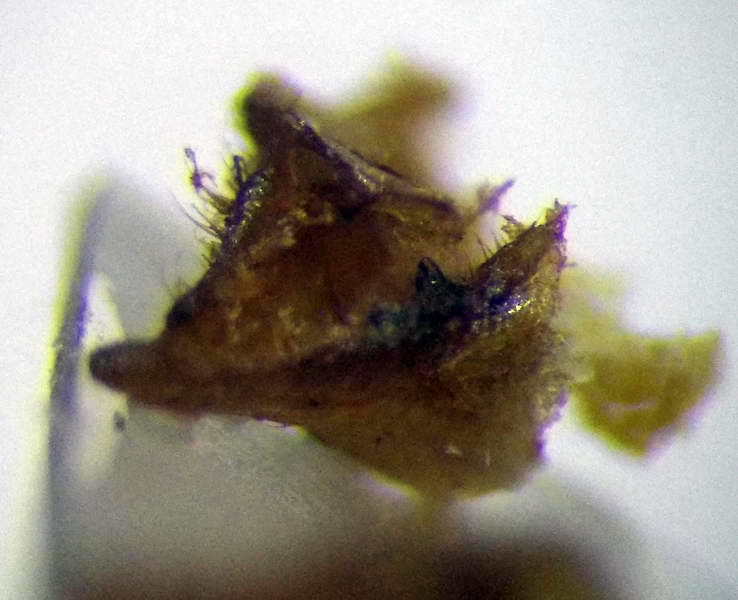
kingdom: Animalia
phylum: Arthropoda
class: Insecta
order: Hemiptera
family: Pentatomidae
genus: Carpocoris
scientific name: Carpocoris fuscispinus
